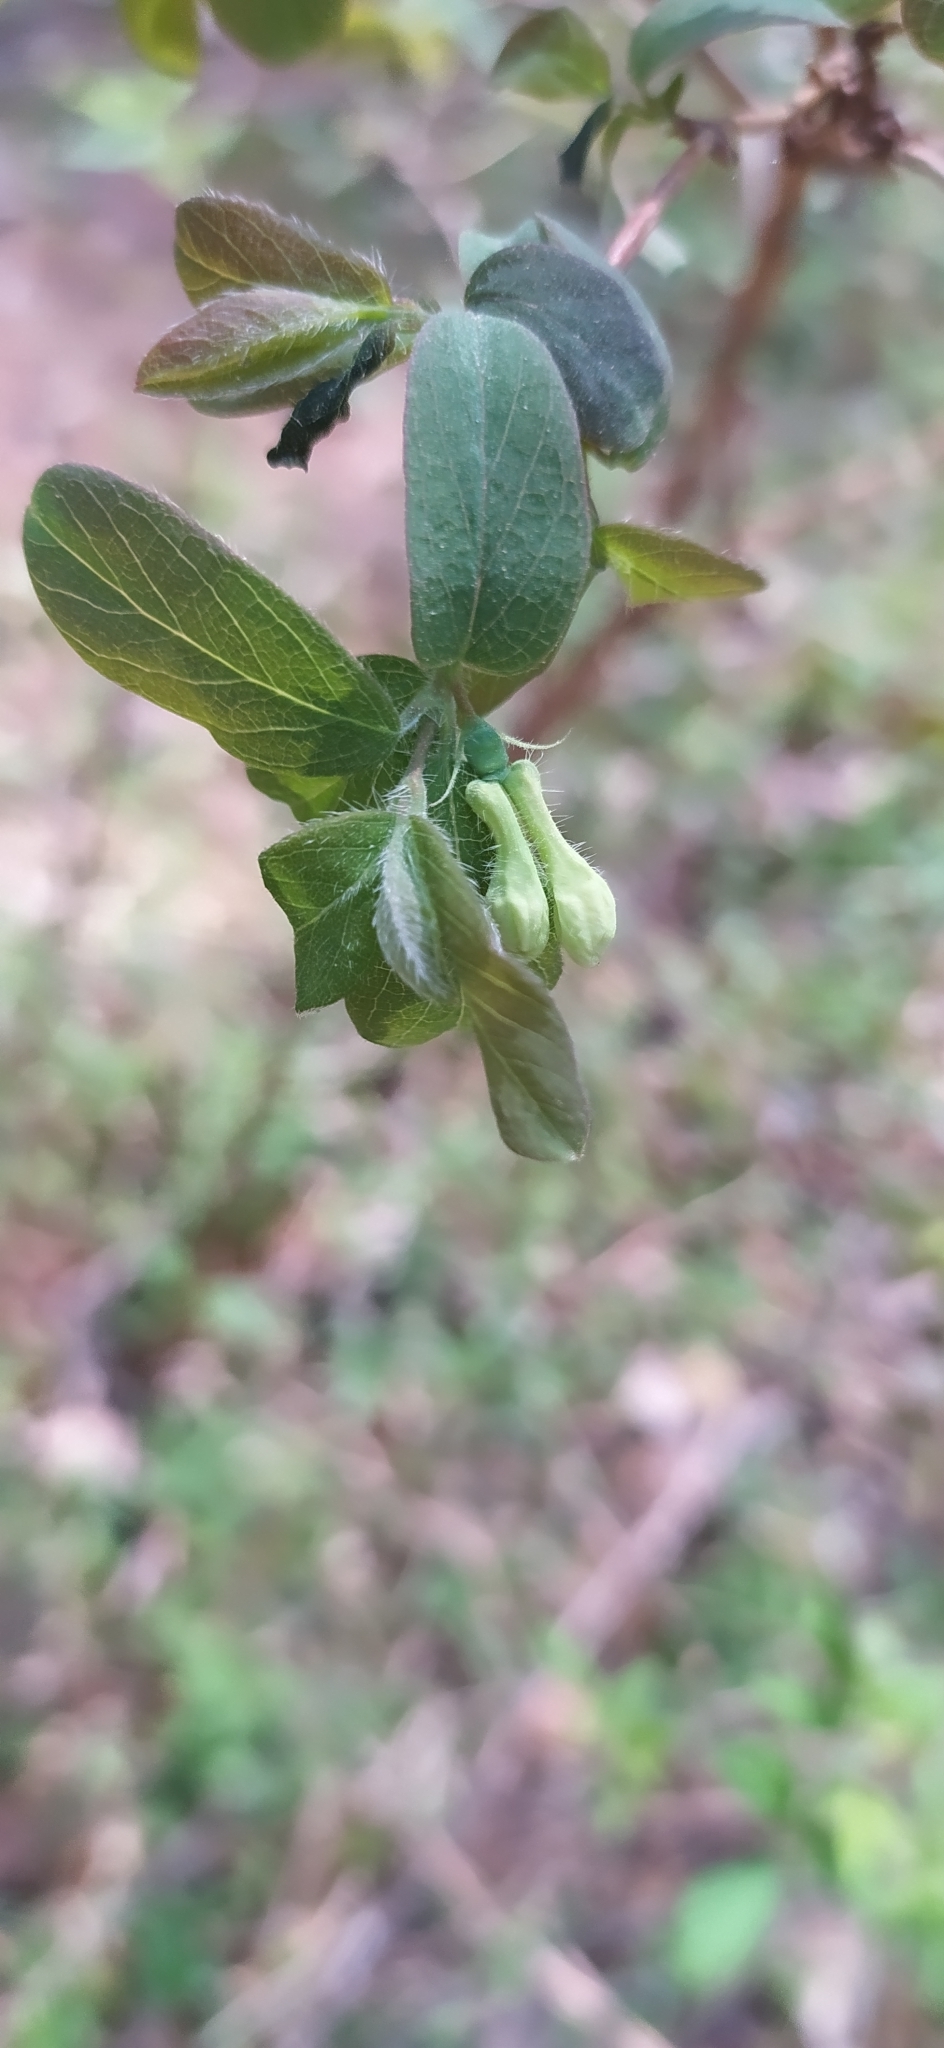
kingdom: Plantae
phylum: Tracheophyta
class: Magnoliopsida
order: Dipsacales
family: Caprifoliaceae
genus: Lonicera
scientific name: Lonicera caerulea
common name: Blue honeysuckle
